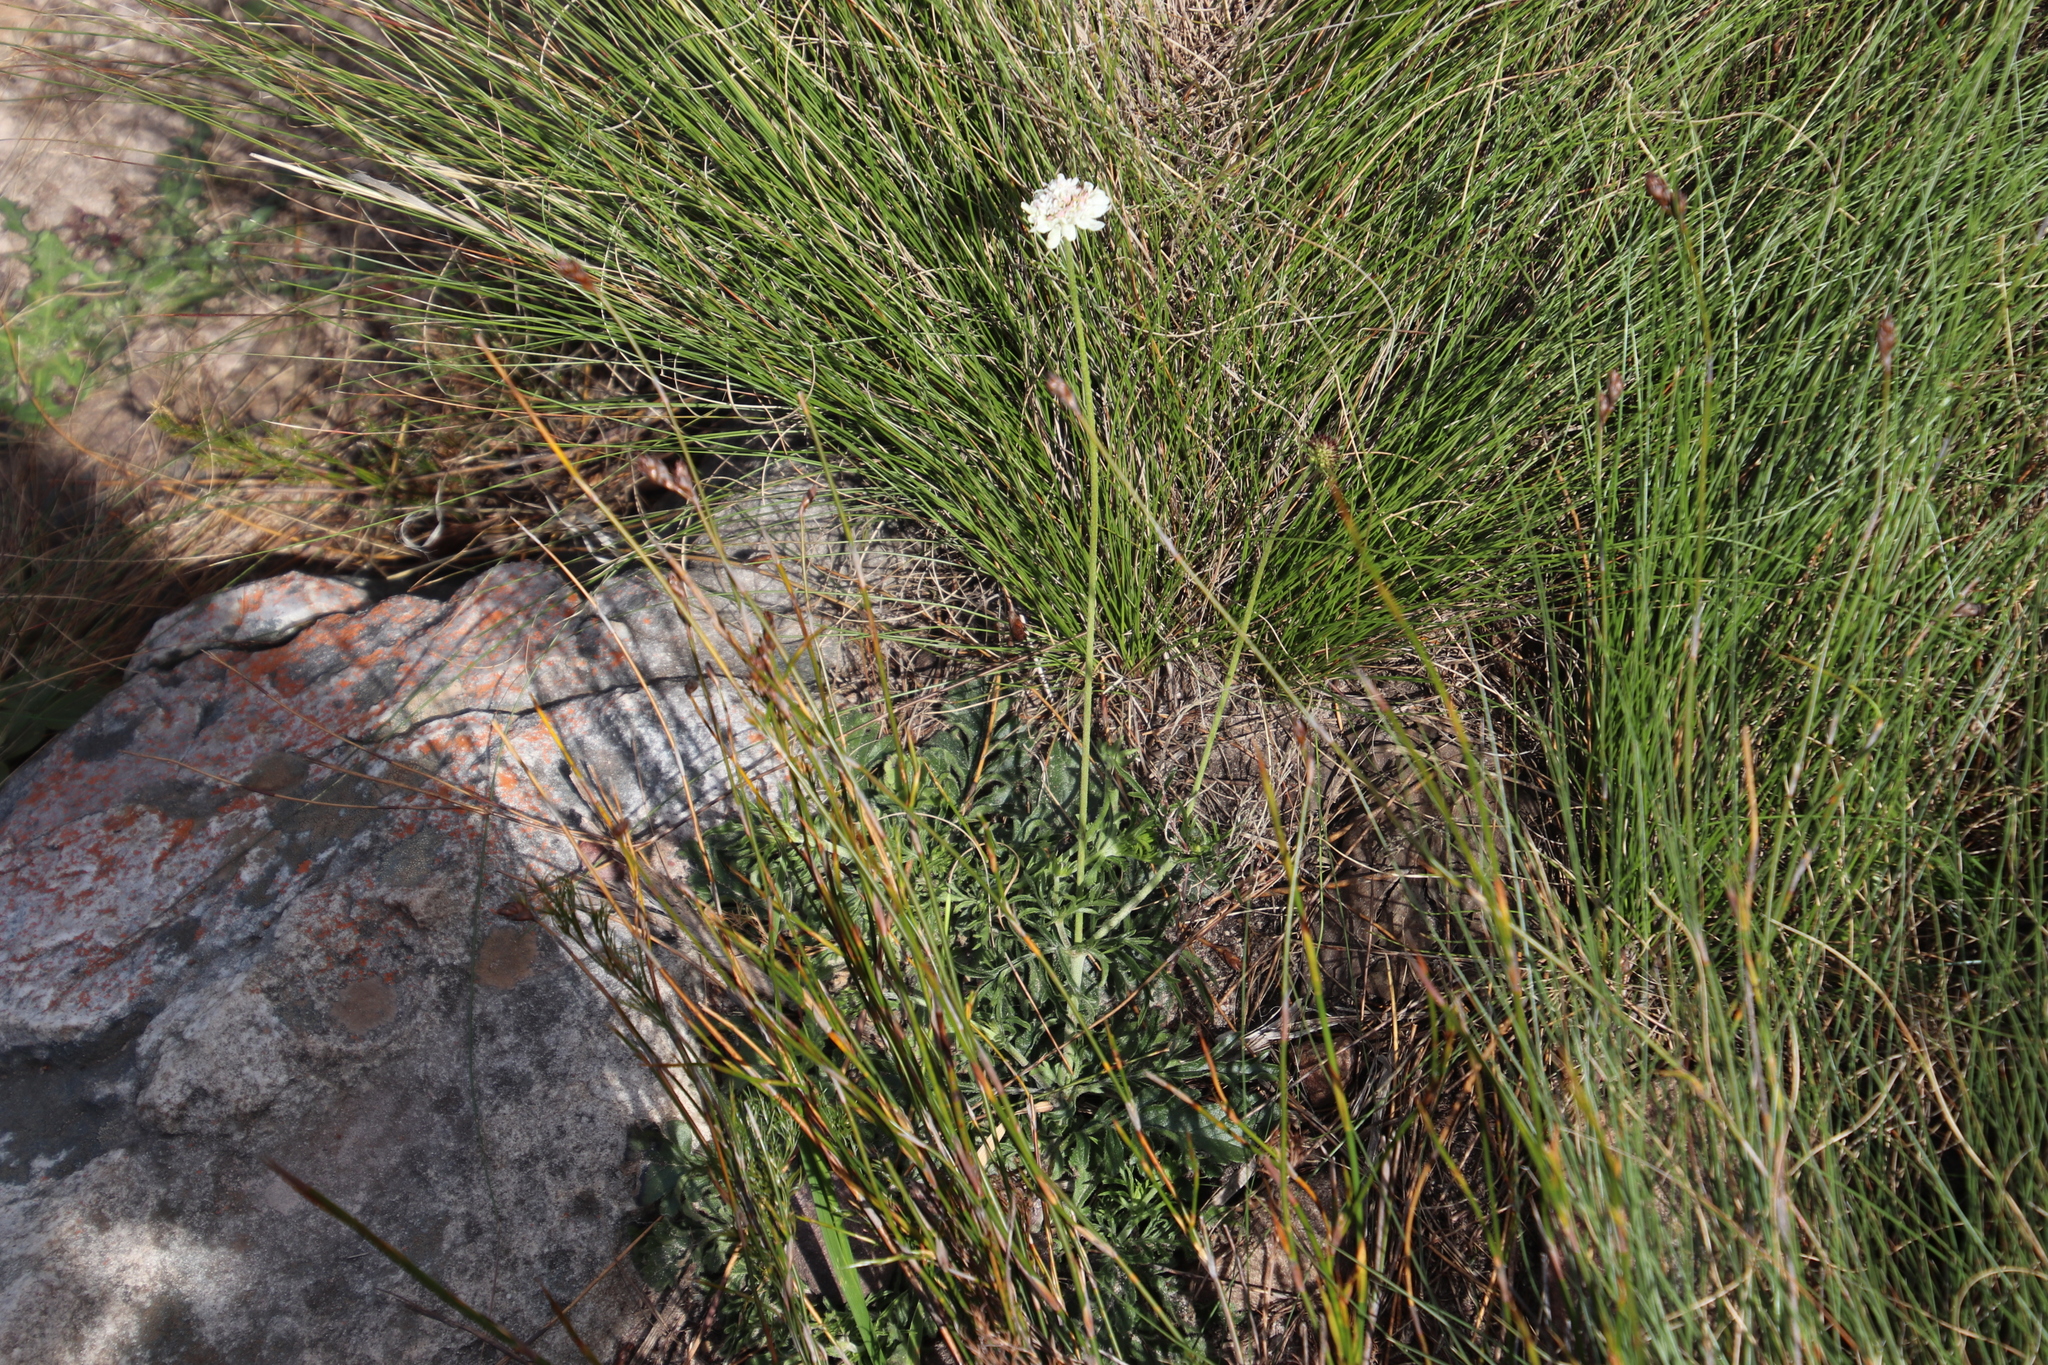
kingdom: Plantae
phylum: Tracheophyta
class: Magnoliopsida
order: Dipsacales
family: Caprifoliaceae
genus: Scabiosa
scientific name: Scabiosa columbaria
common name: Small scabious
